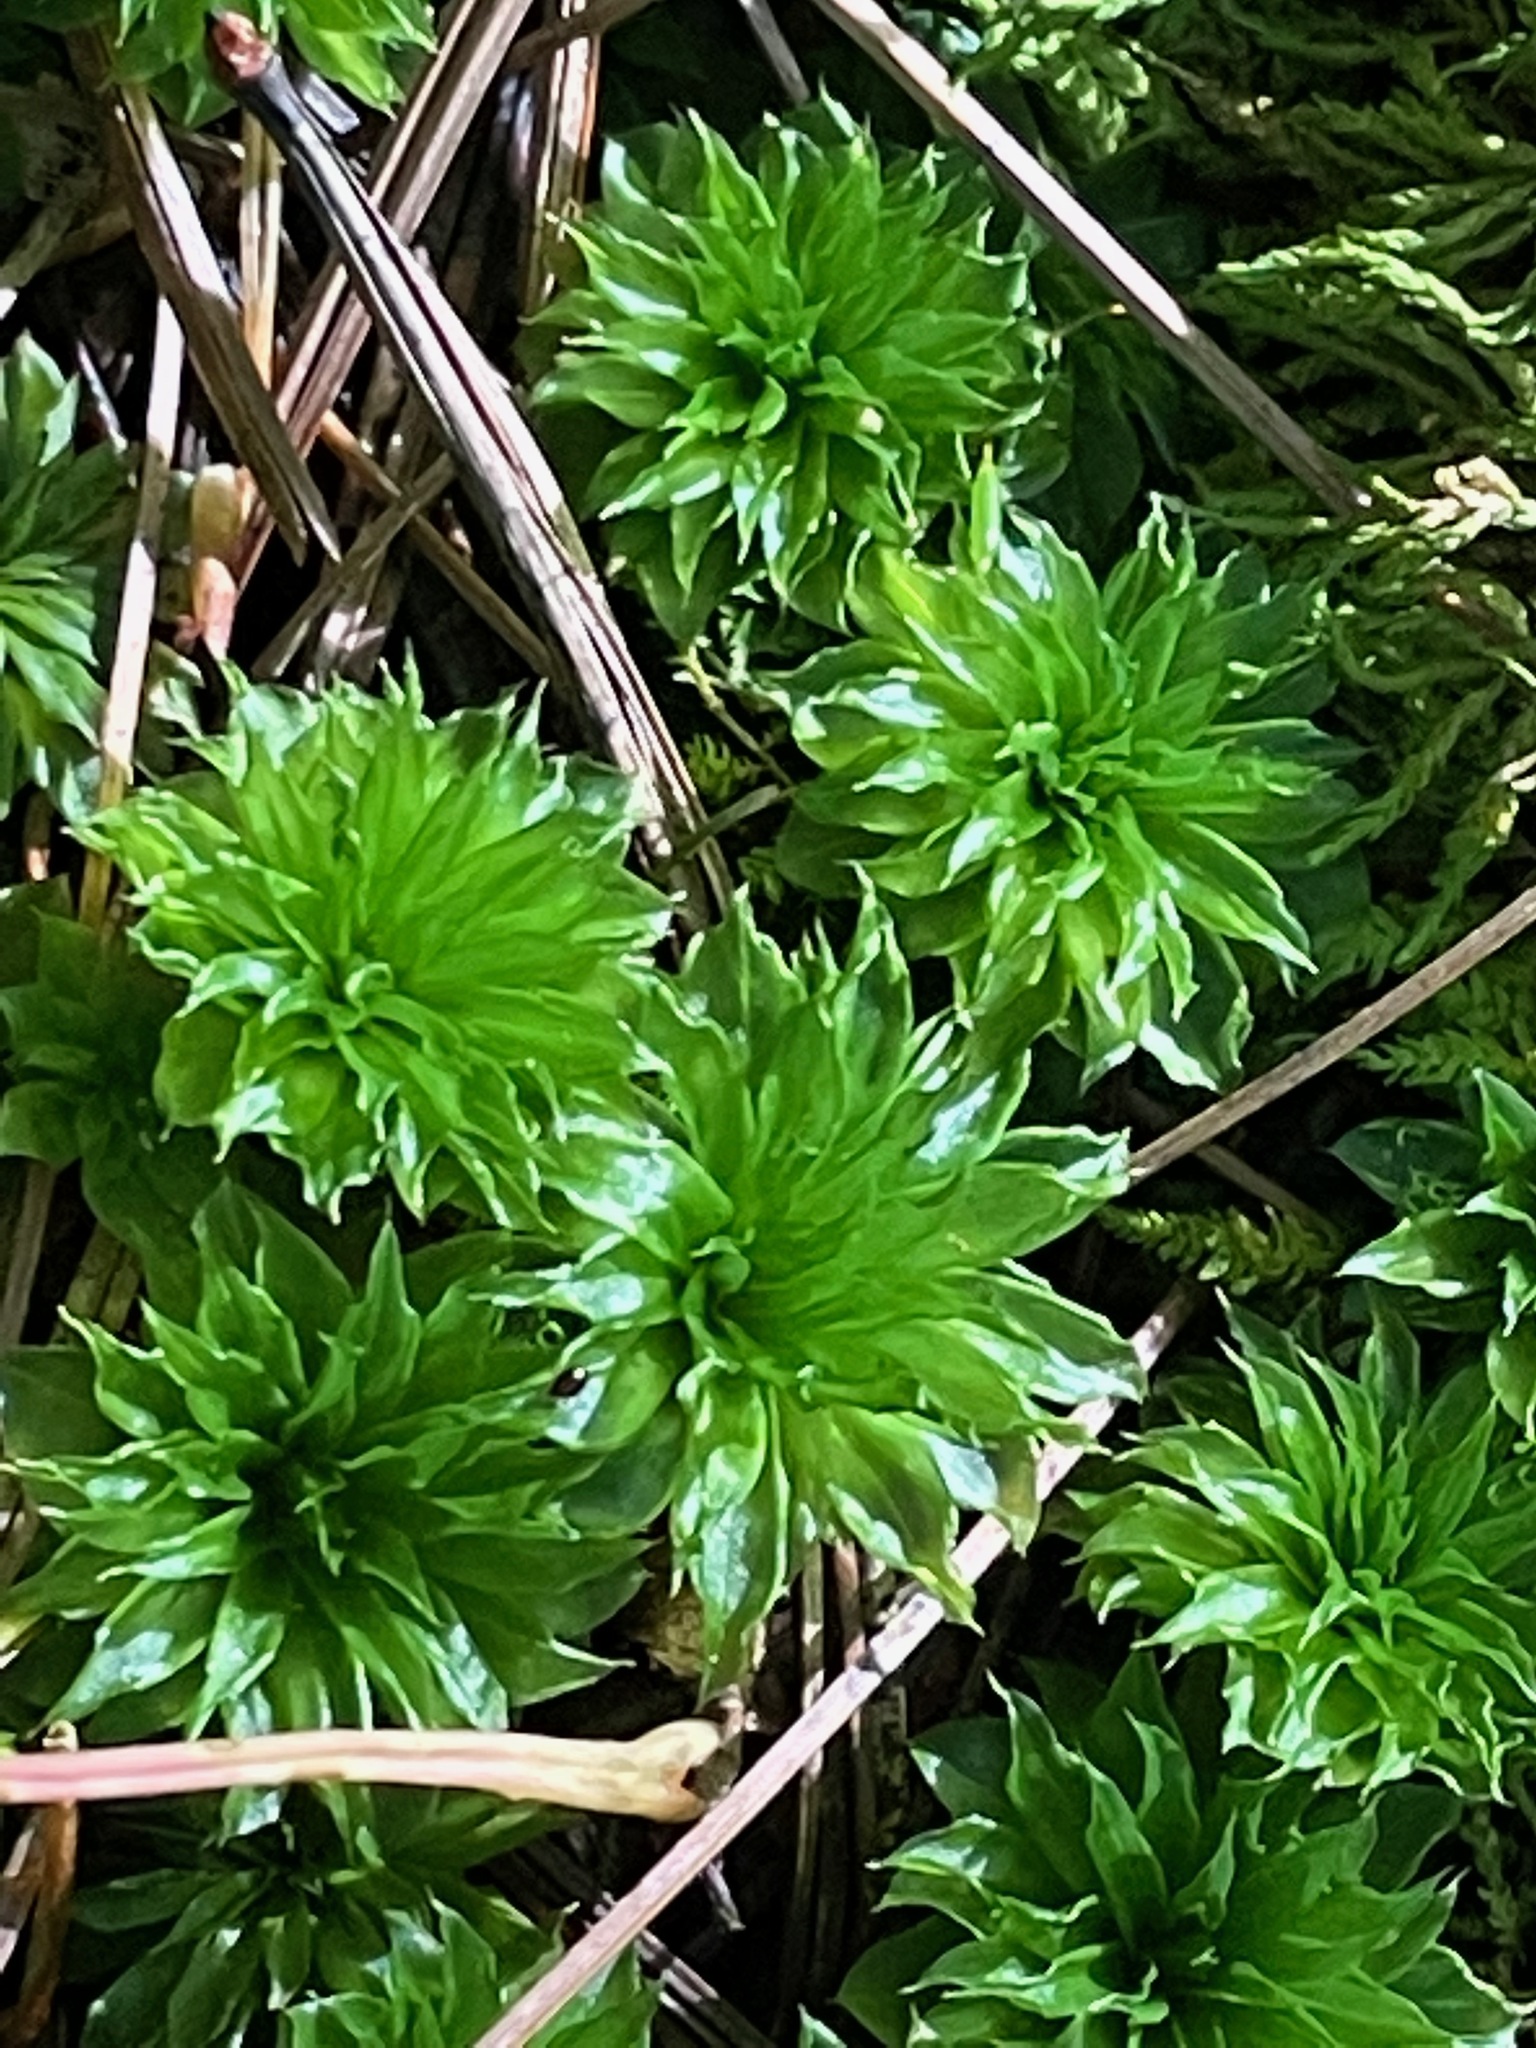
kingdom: Plantae
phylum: Bryophyta
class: Bryopsida
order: Bryales
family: Bryaceae
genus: Rhodobryum
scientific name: Rhodobryum ontariense
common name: Ontario rhodobryum moss
